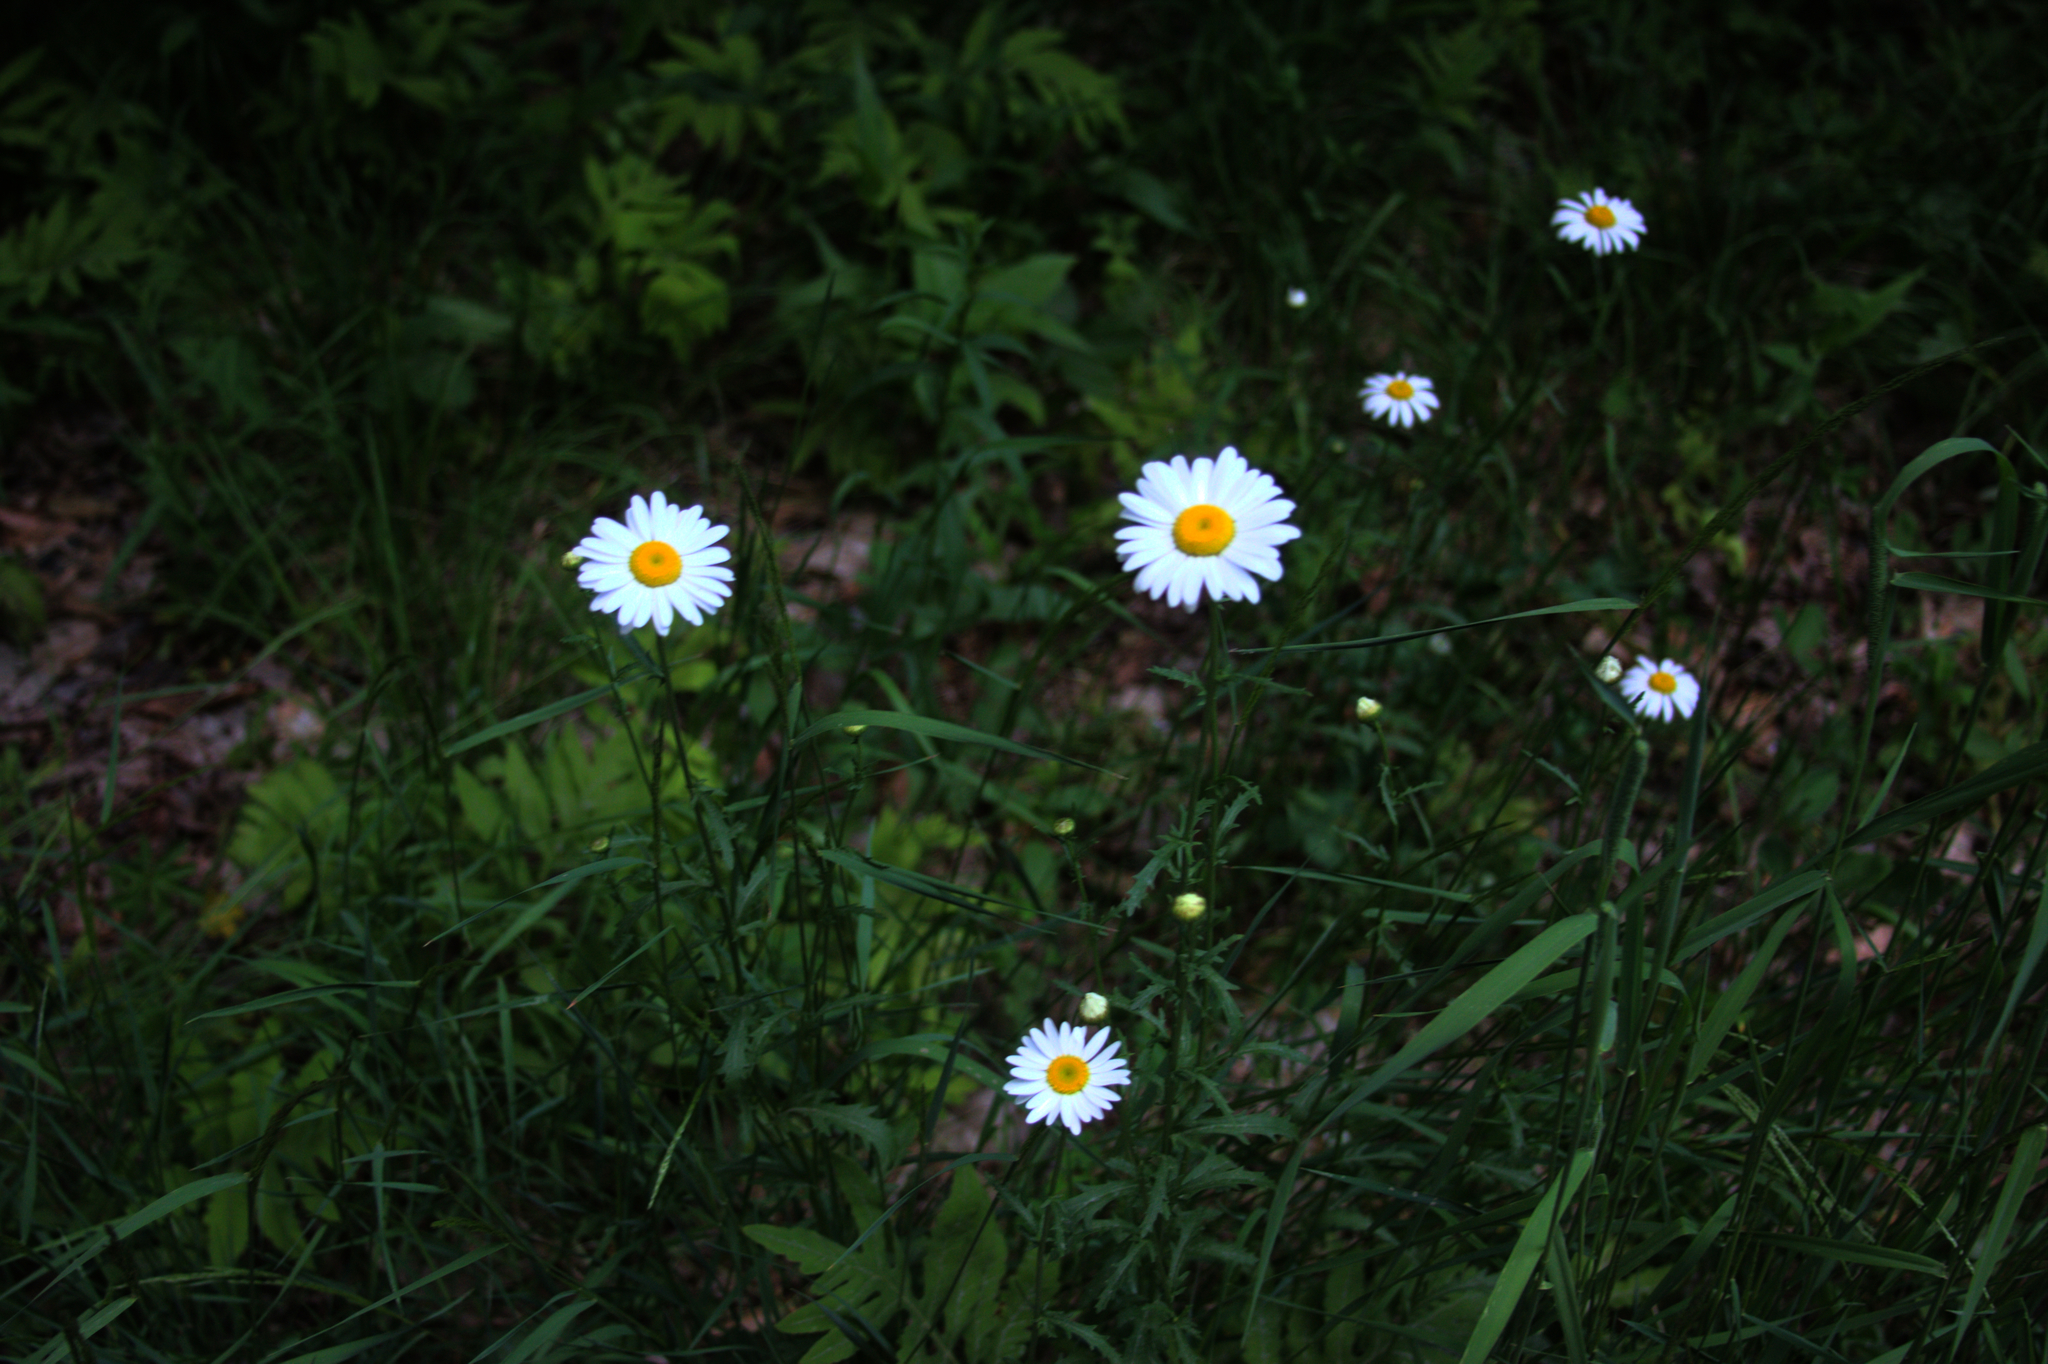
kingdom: Plantae
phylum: Tracheophyta
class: Magnoliopsida
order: Asterales
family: Asteraceae
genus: Leucanthemum
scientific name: Leucanthemum vulgare
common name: Oxeye daisy
